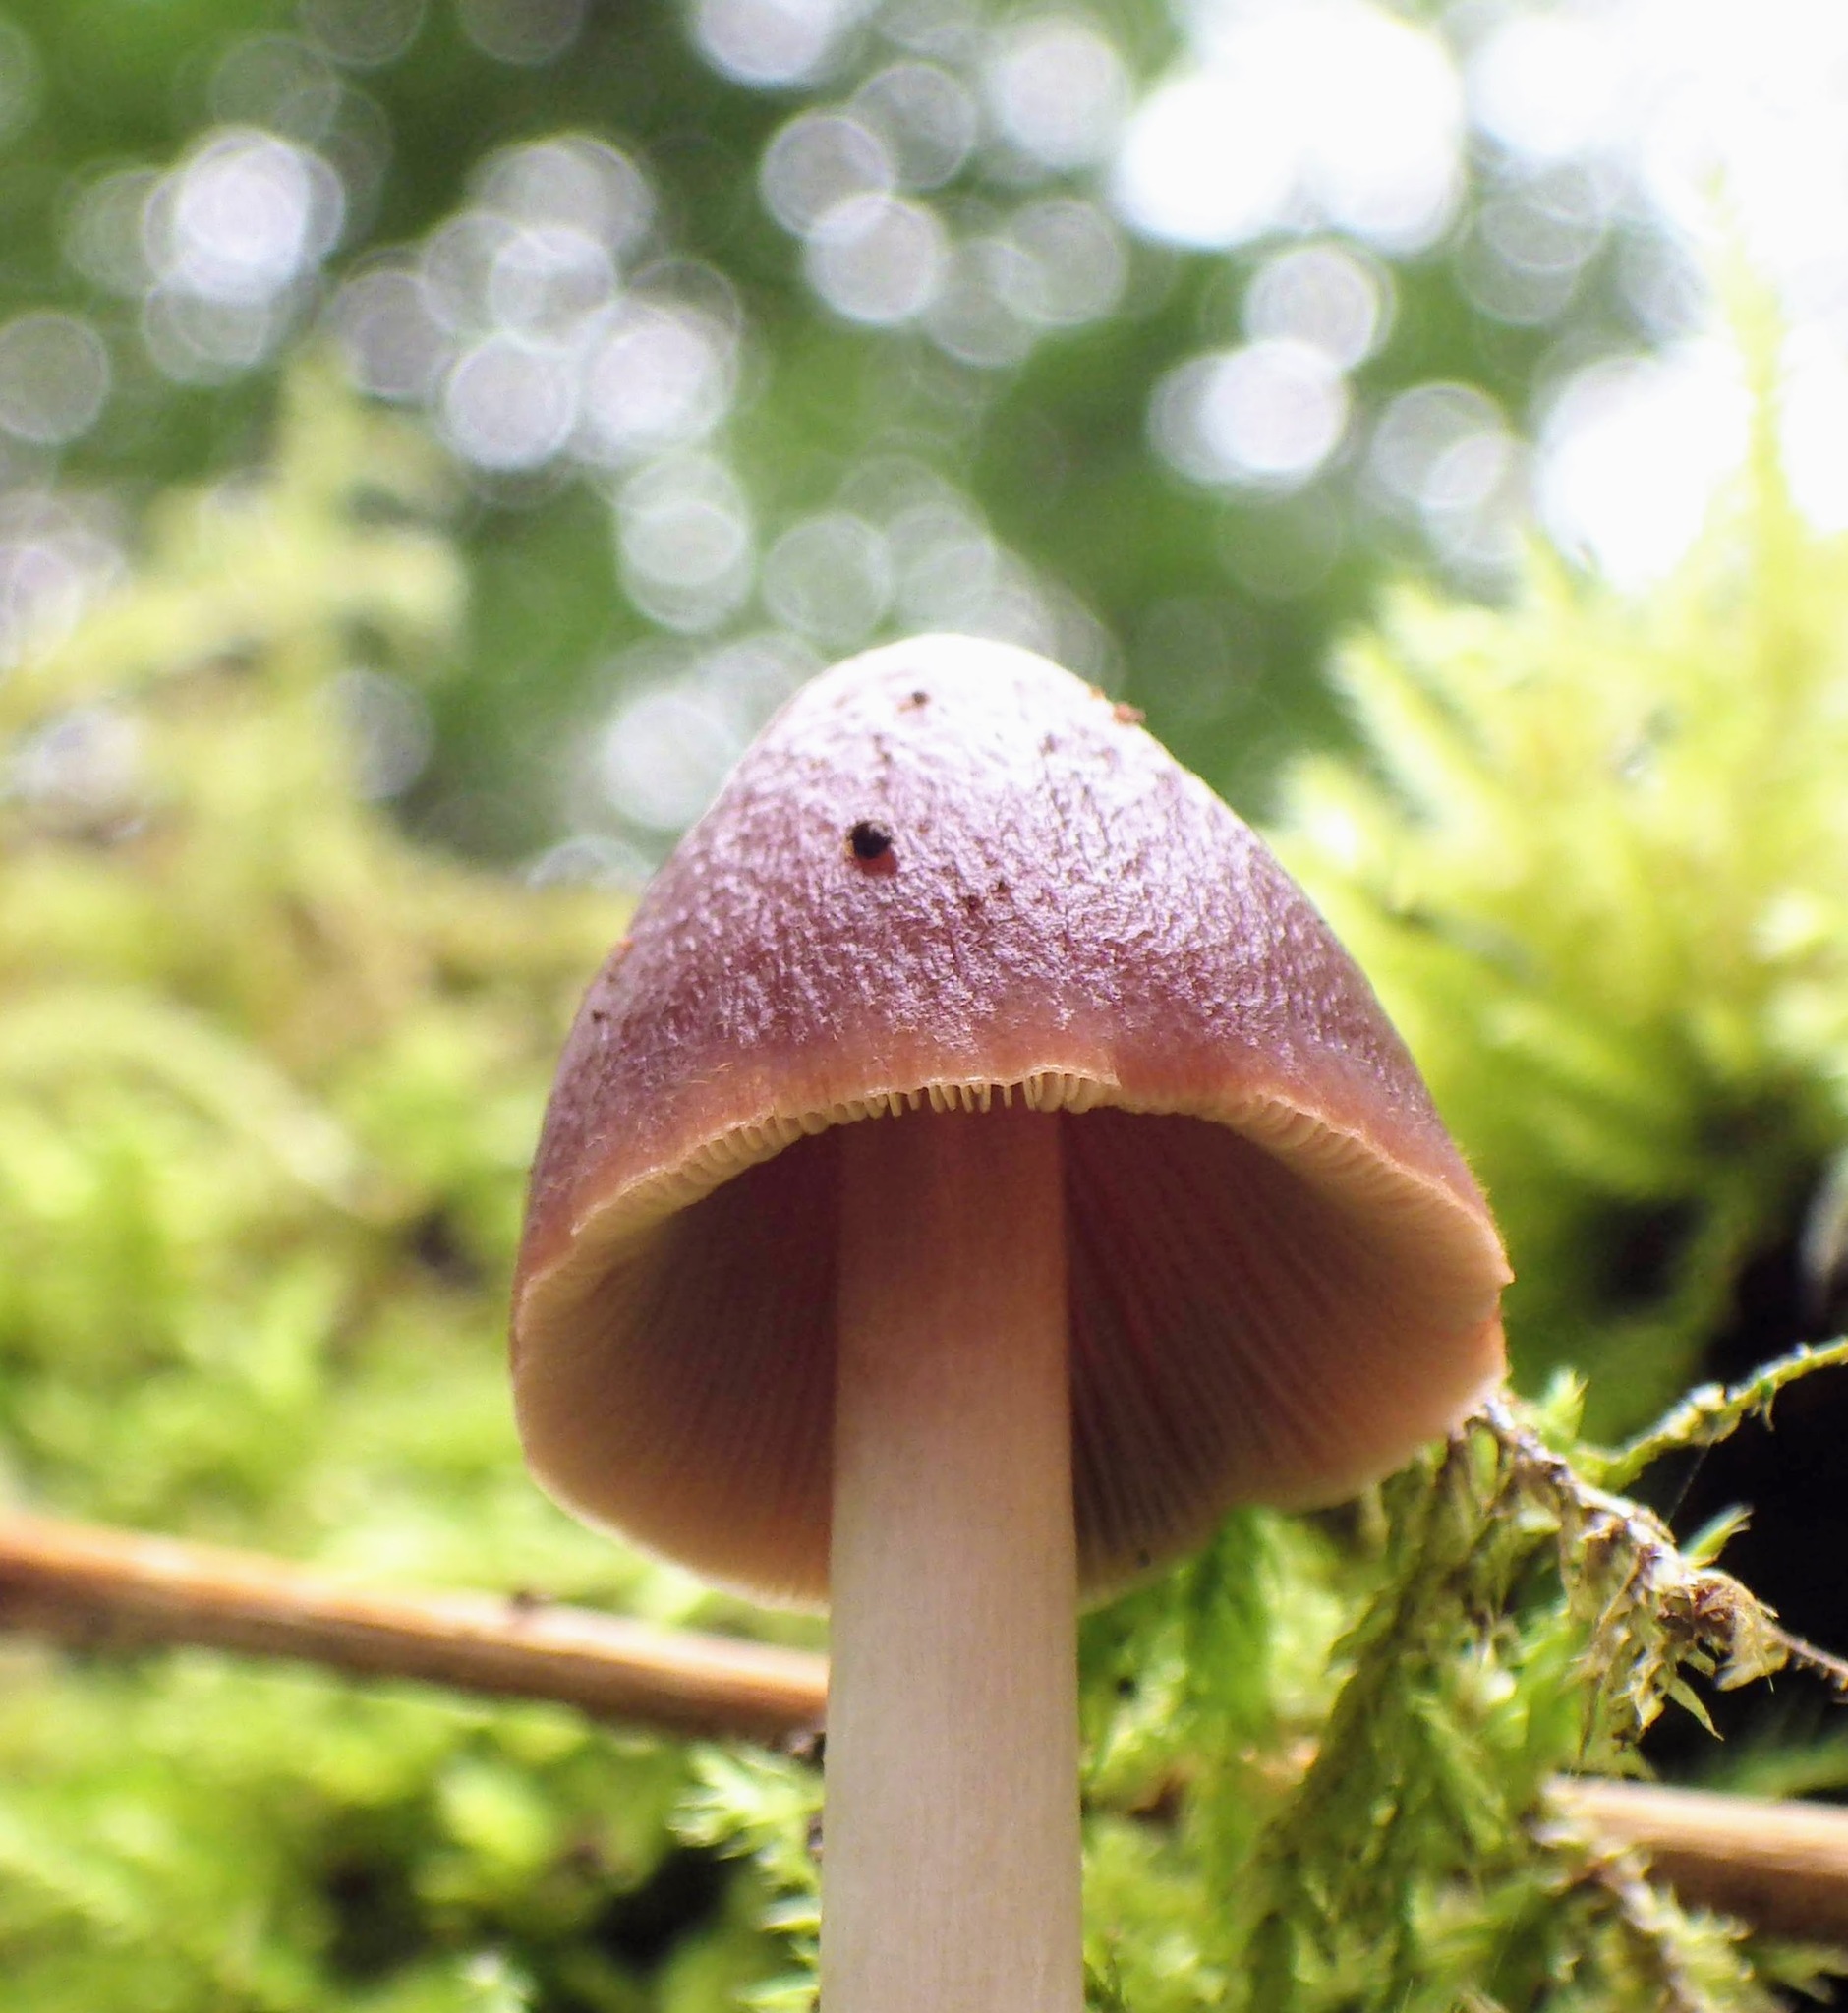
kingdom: Fungi
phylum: Basidiomycota
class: Agaricomycetes
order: Agaricales
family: Psathyrellaceae
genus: Parasola
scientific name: Parasola conopilea
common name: Conical brittlestem
